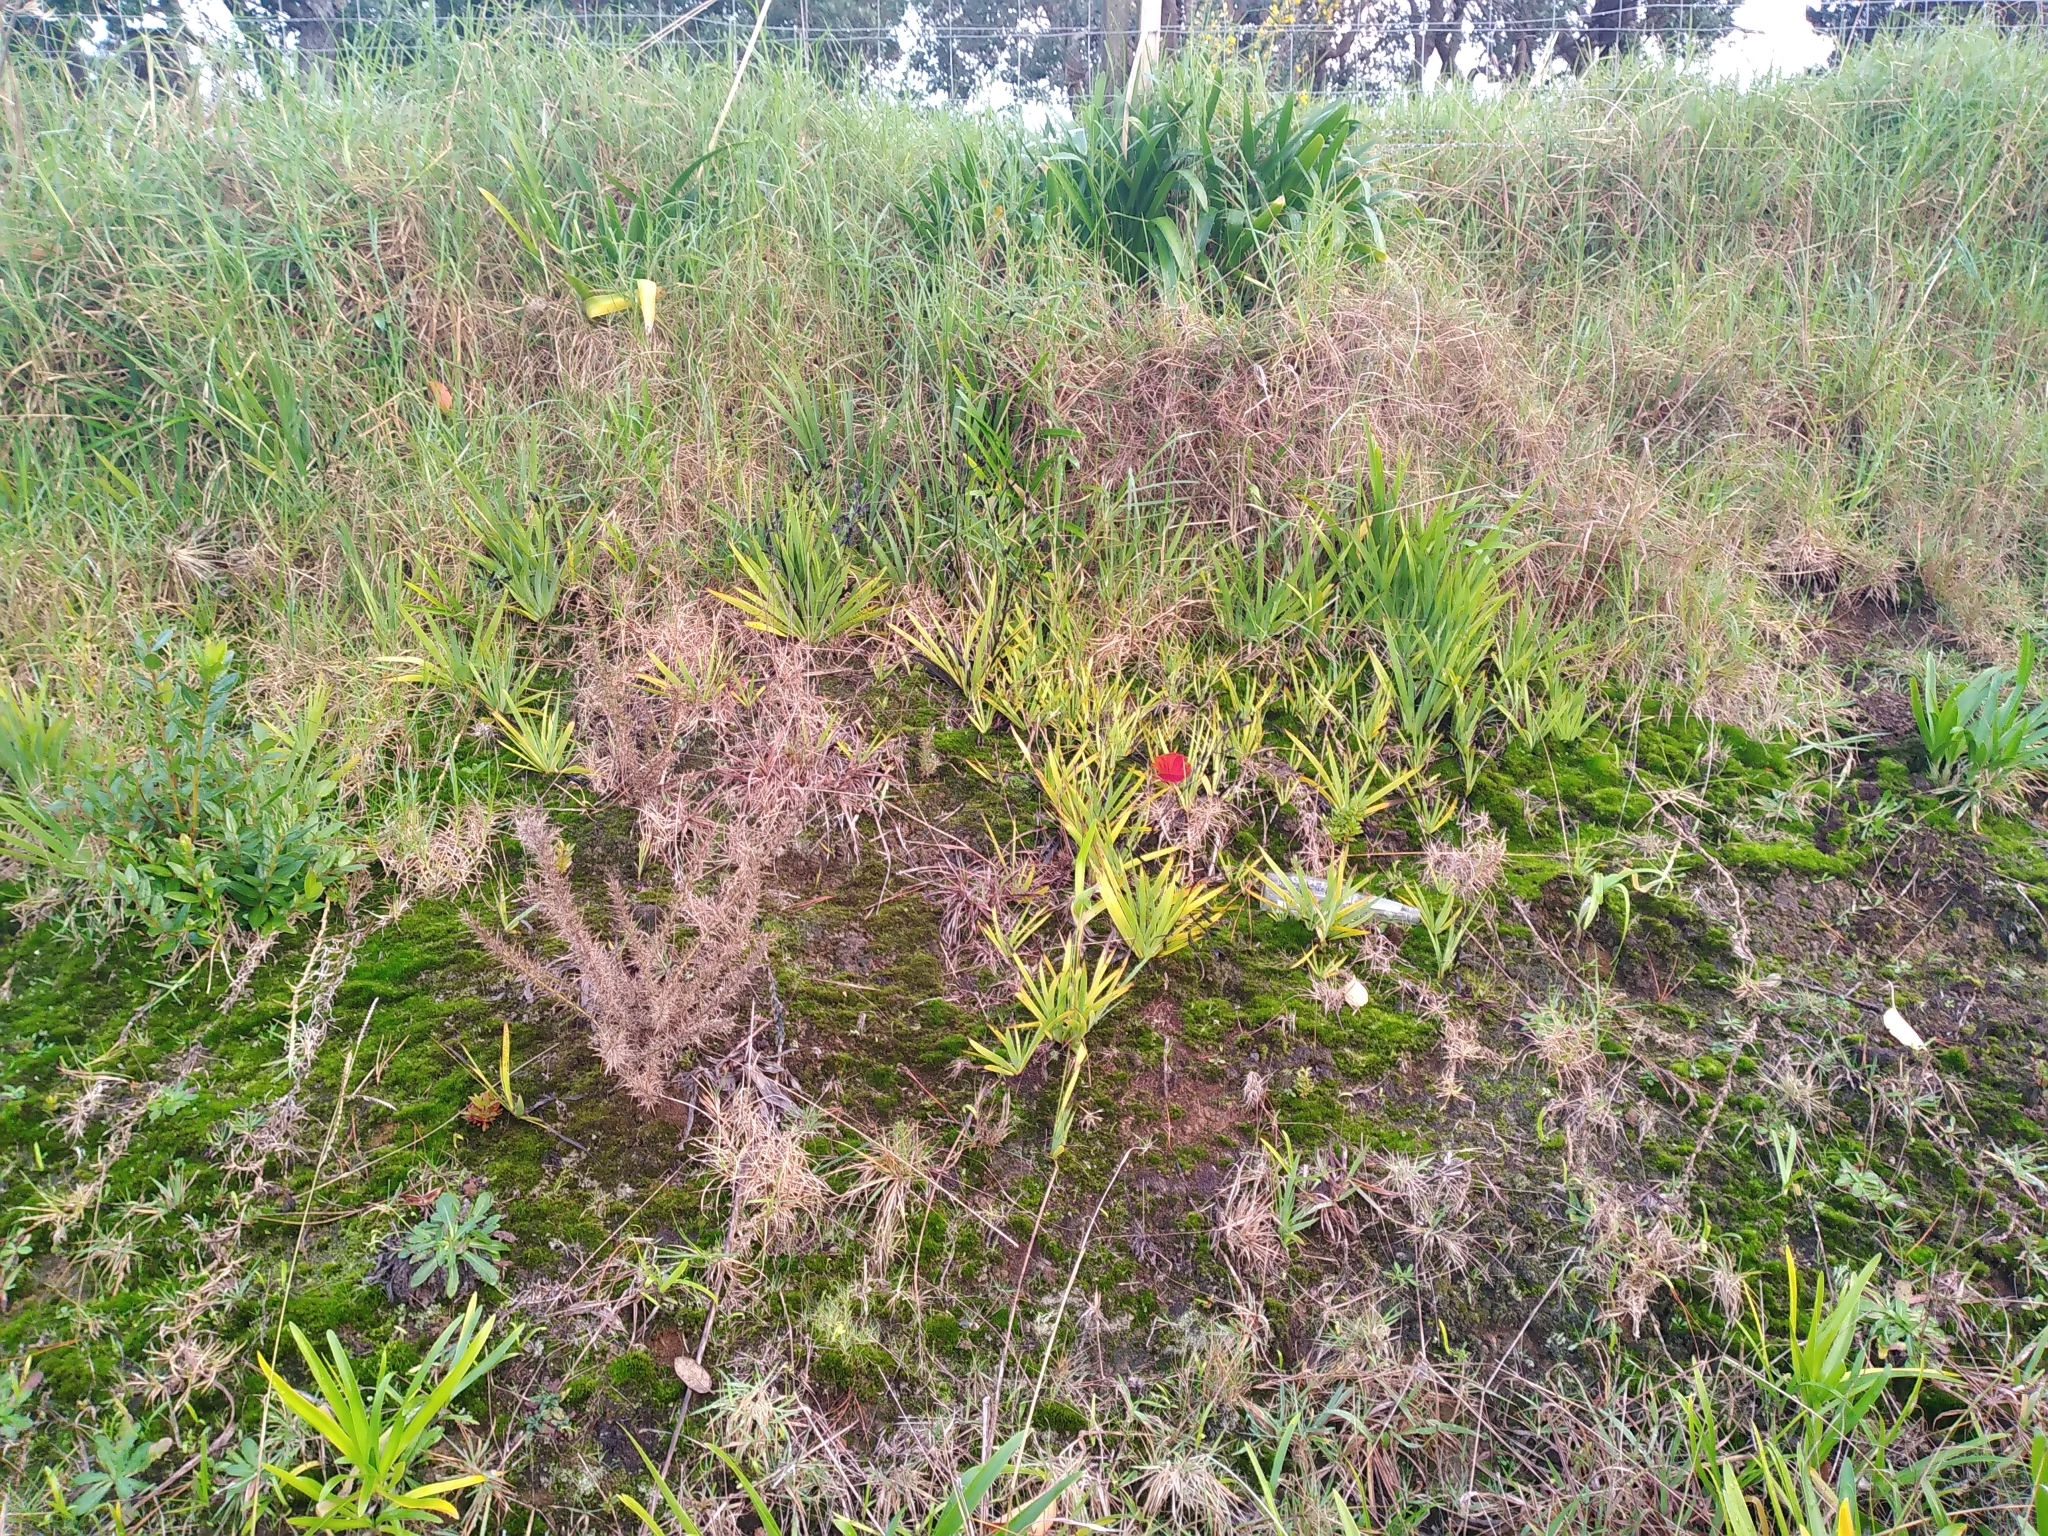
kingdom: Plantae
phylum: Tracheophyta
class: Liliopsida
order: Asparagales
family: Iridaceae
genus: Aristea
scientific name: Aristea ecklonii
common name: Blue corn-lily
